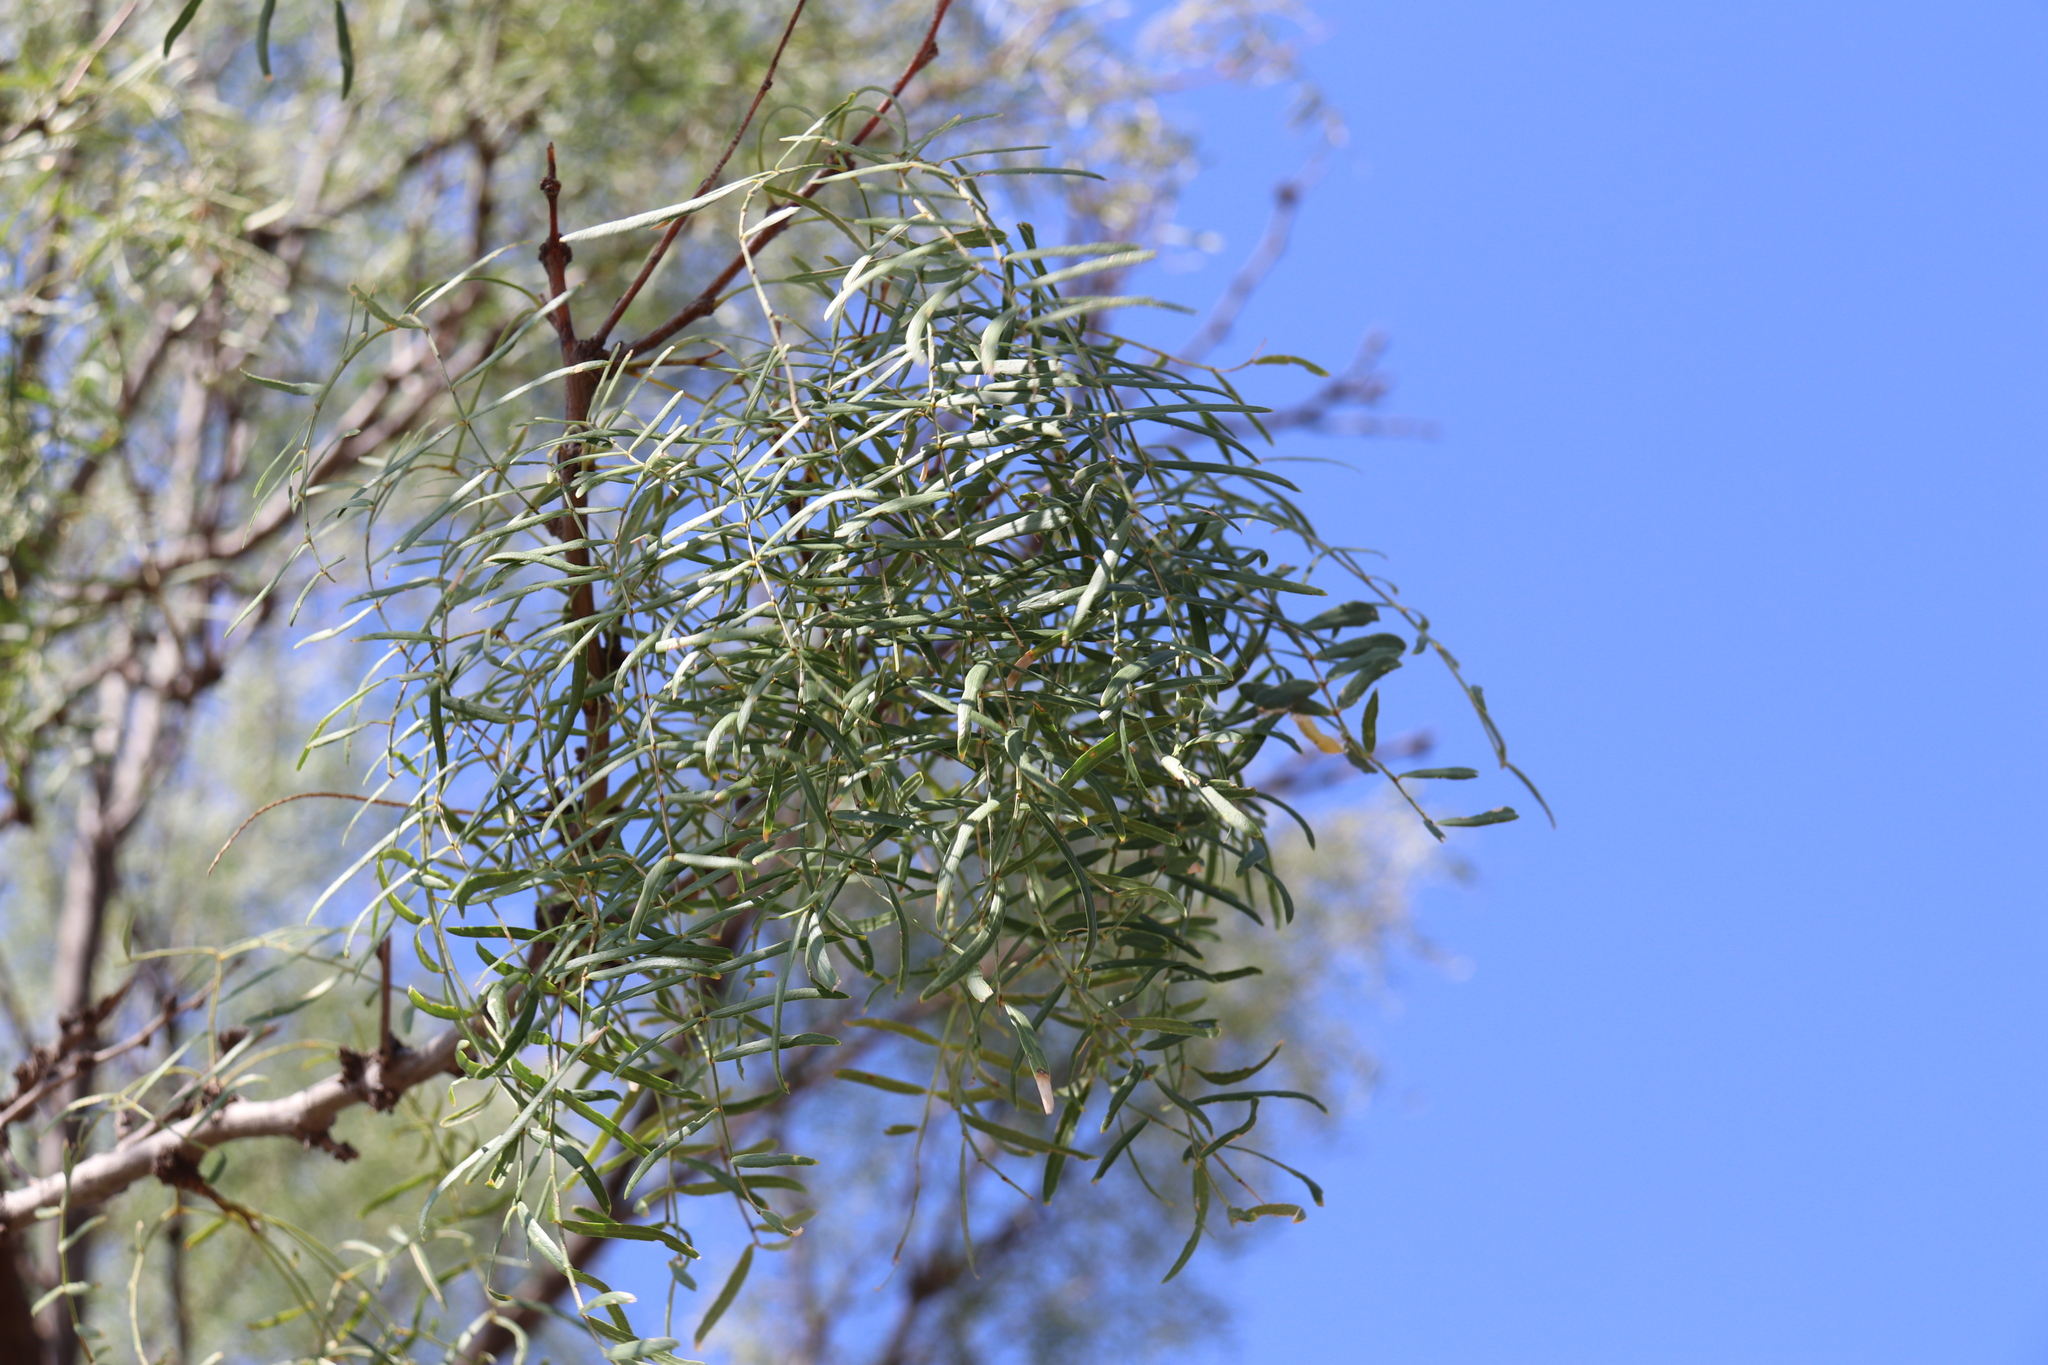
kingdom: Plantae
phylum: Tracheophyta
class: Magnoliopsida
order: Fabales
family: Fabaceae
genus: Prosopis
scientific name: Prosopis glandulosa
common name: Honey mesquite
